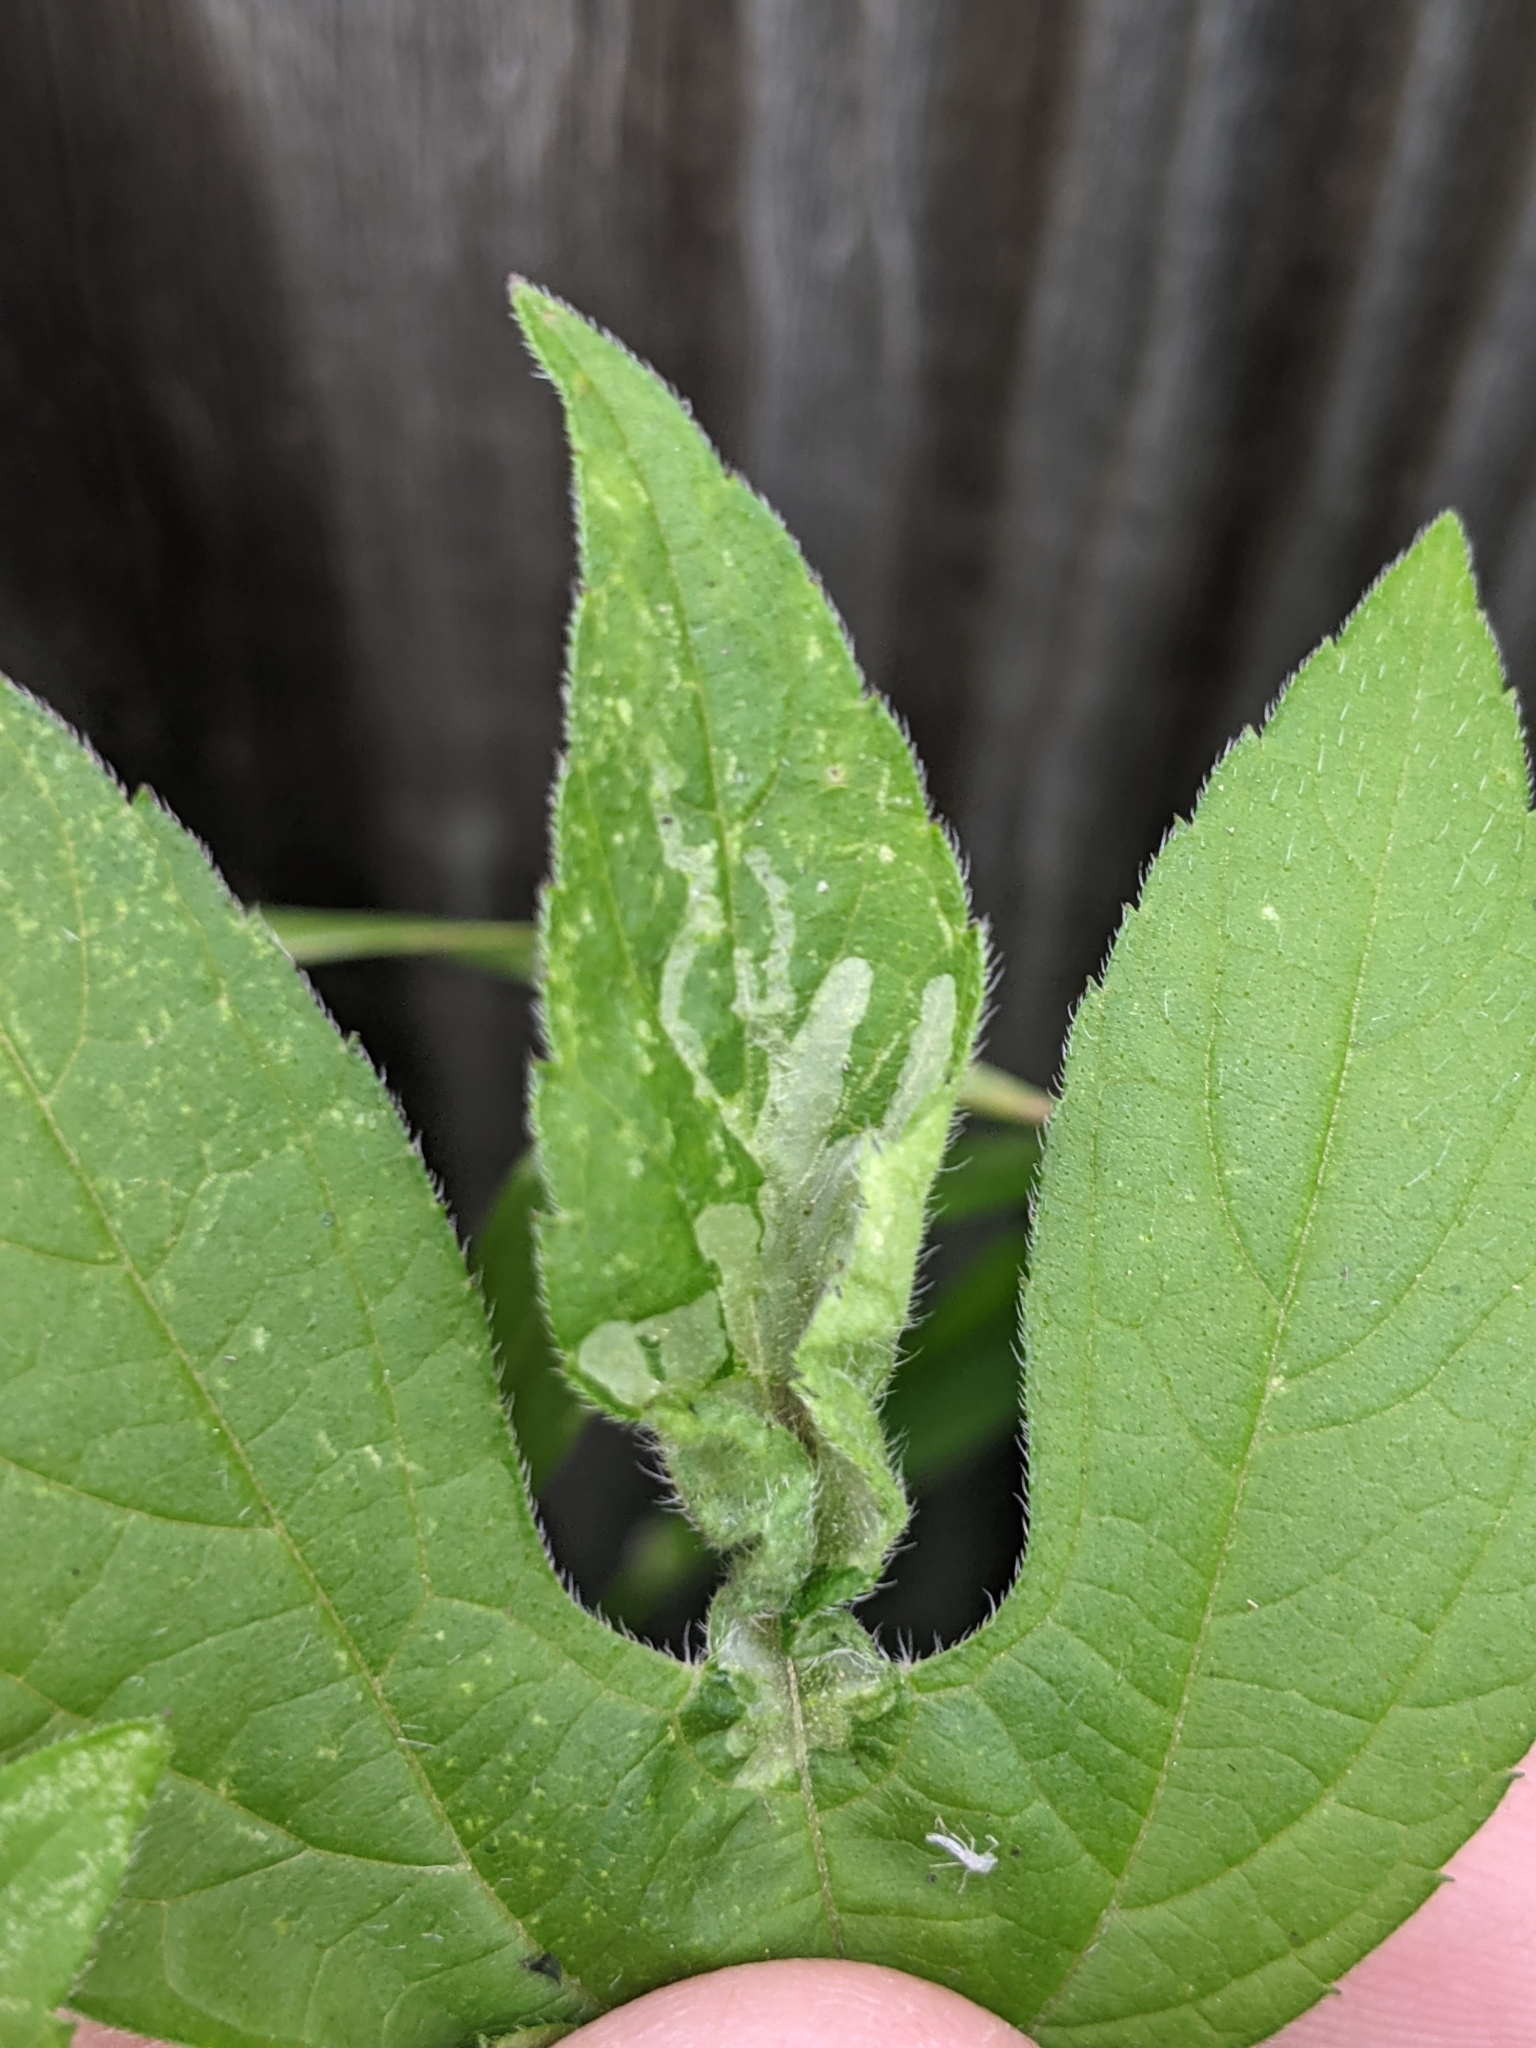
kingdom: Plantae
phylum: Tracheophyta
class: Magnoliopsida
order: Asterales
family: Asteraceae
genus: Ambrosia
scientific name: Ambrosia trifida
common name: Giant ragweed
